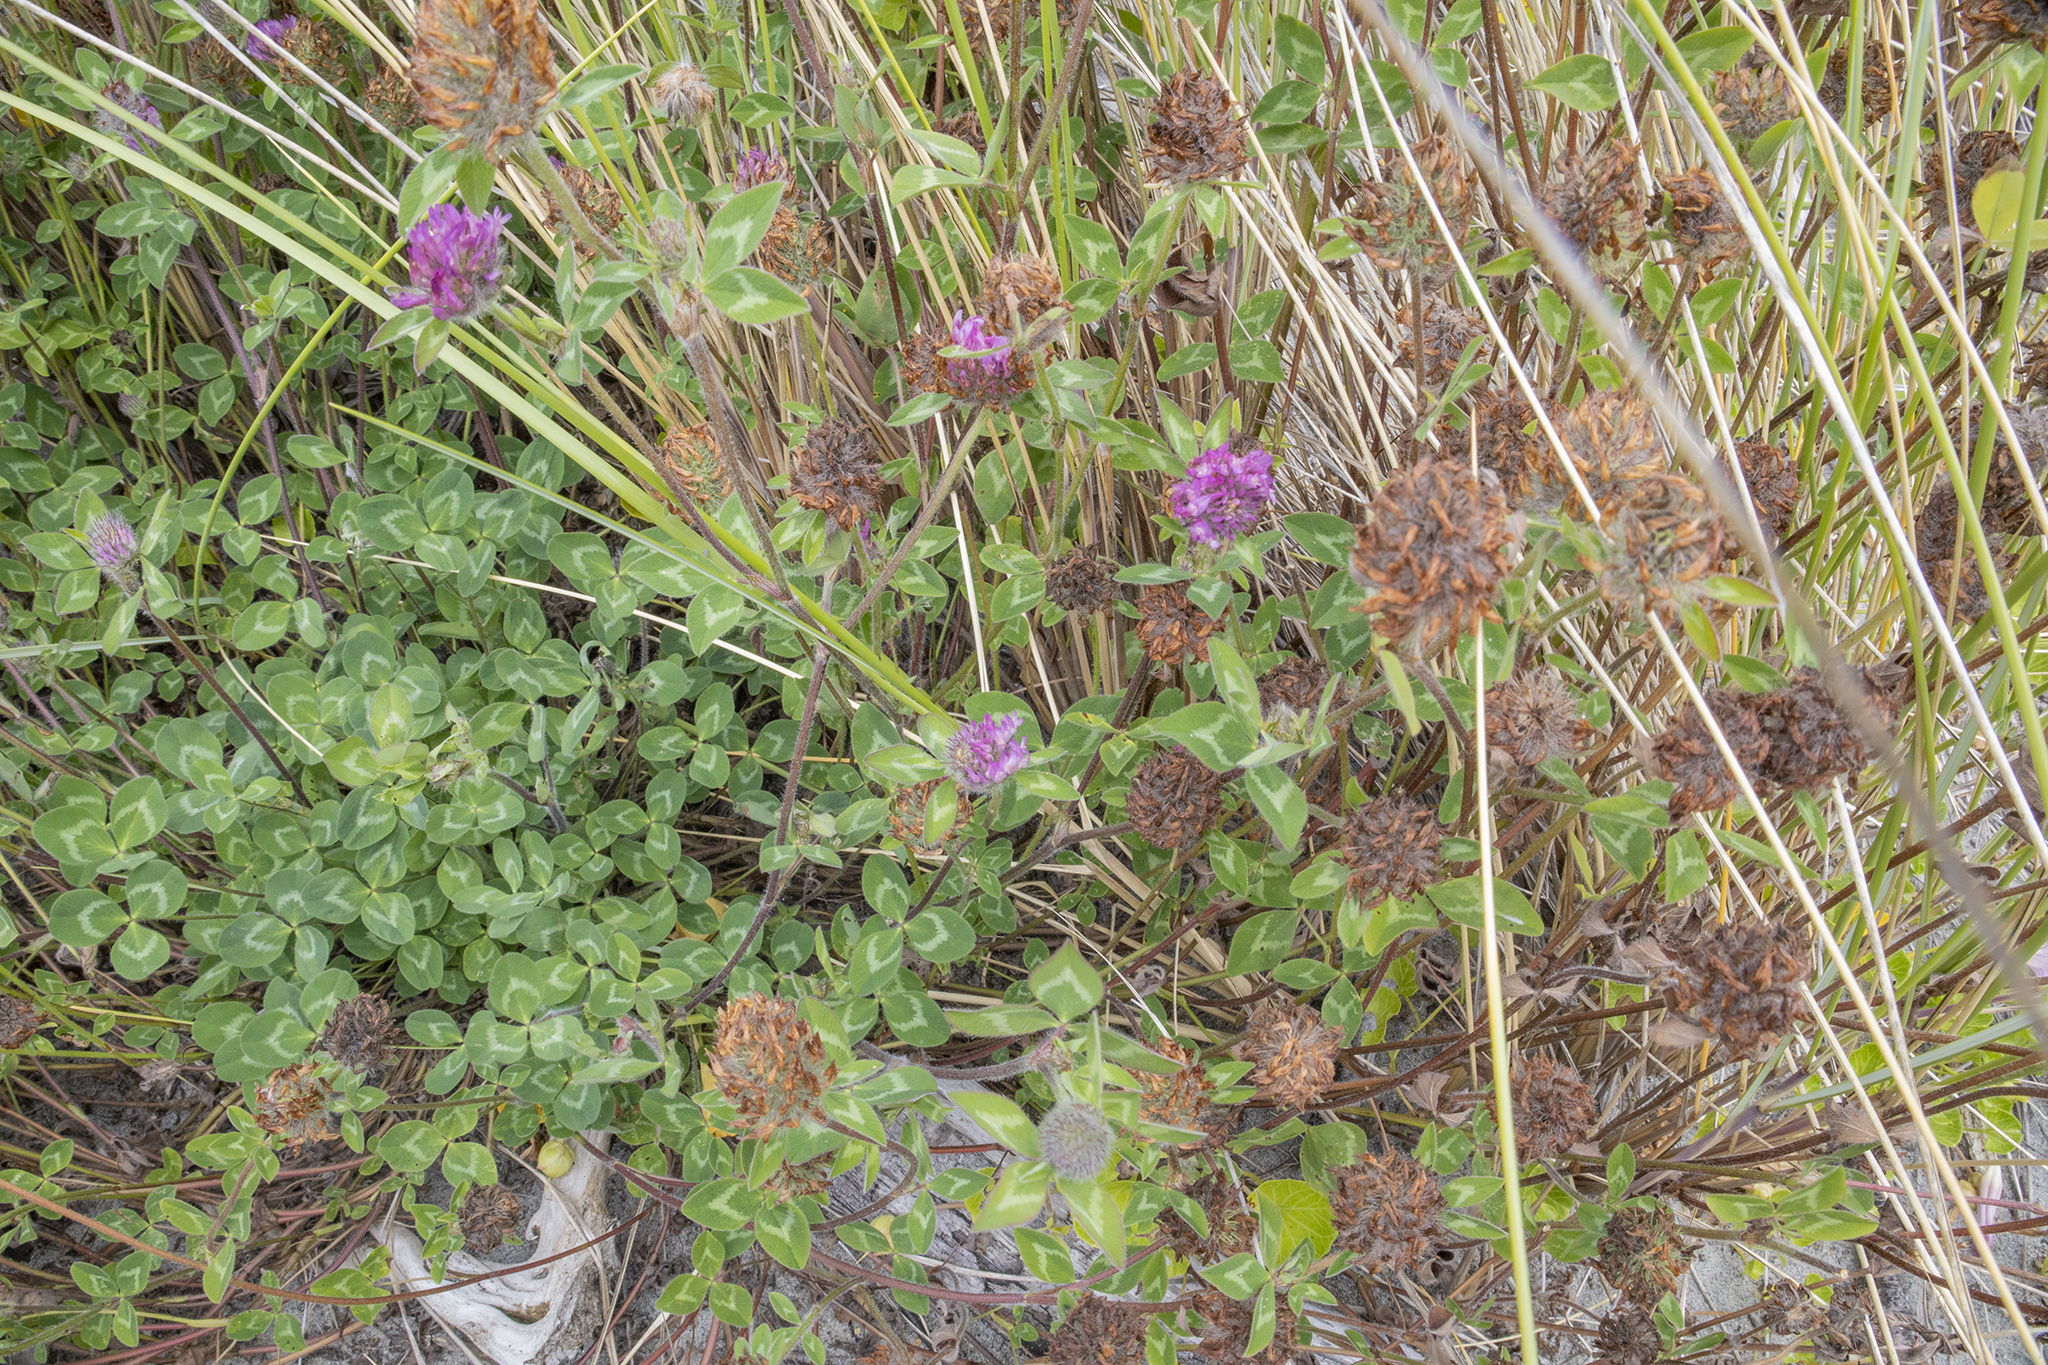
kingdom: Plantae
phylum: Tracheophyta
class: Magnoliopsida
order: Fabales
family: Fabaceae
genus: Trifolium
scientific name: Trifolium pratense
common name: Red clover
